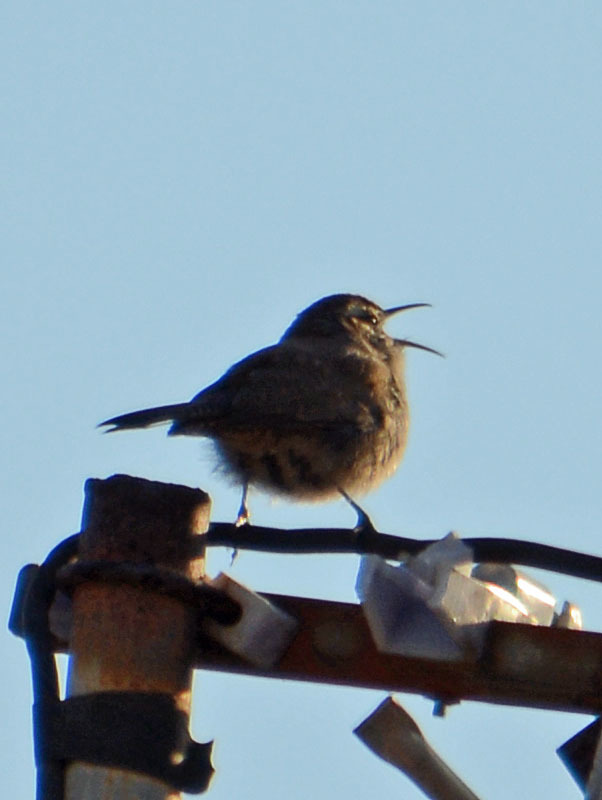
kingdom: Animalia
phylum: Chordata
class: Aves
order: Passeriformes
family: Troglodytidae
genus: Thryomanes
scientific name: Thryomanes bewickii
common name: Bewick's wren
